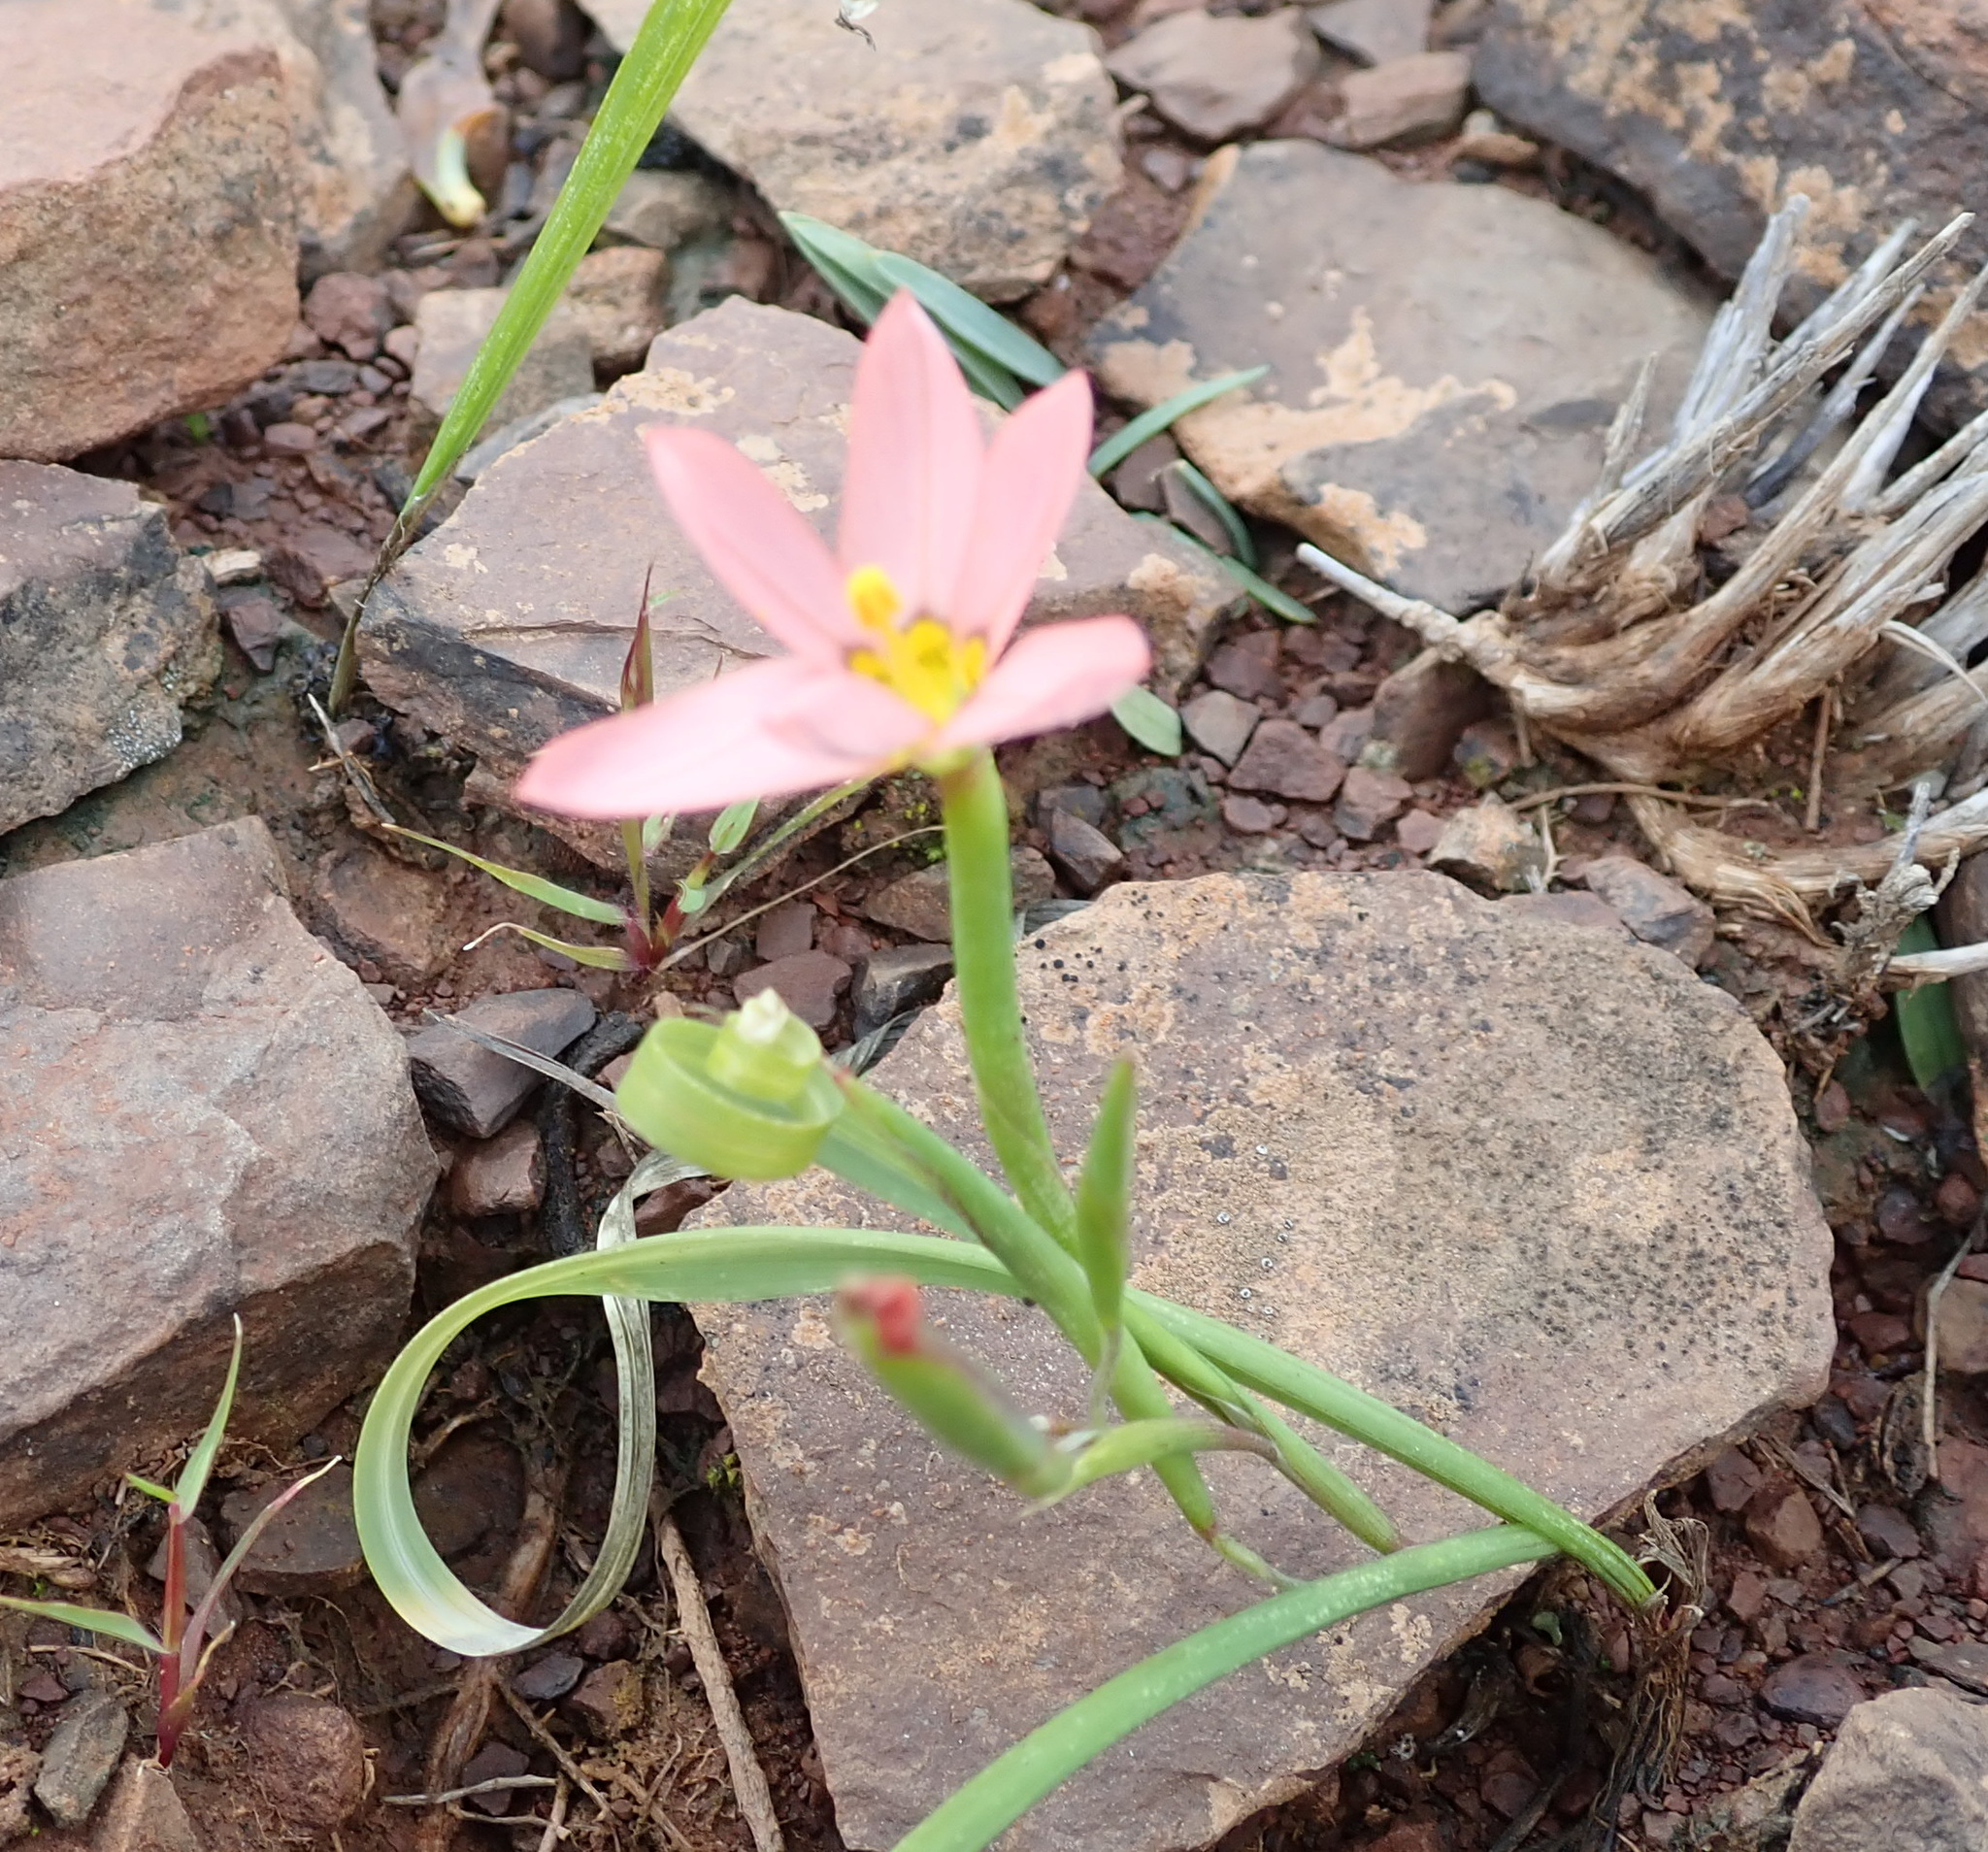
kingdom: Plantae
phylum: Tracheophyta
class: Liliopsida
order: Asparagales
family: Iridaceae
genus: Moraea
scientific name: Moraea aspera
